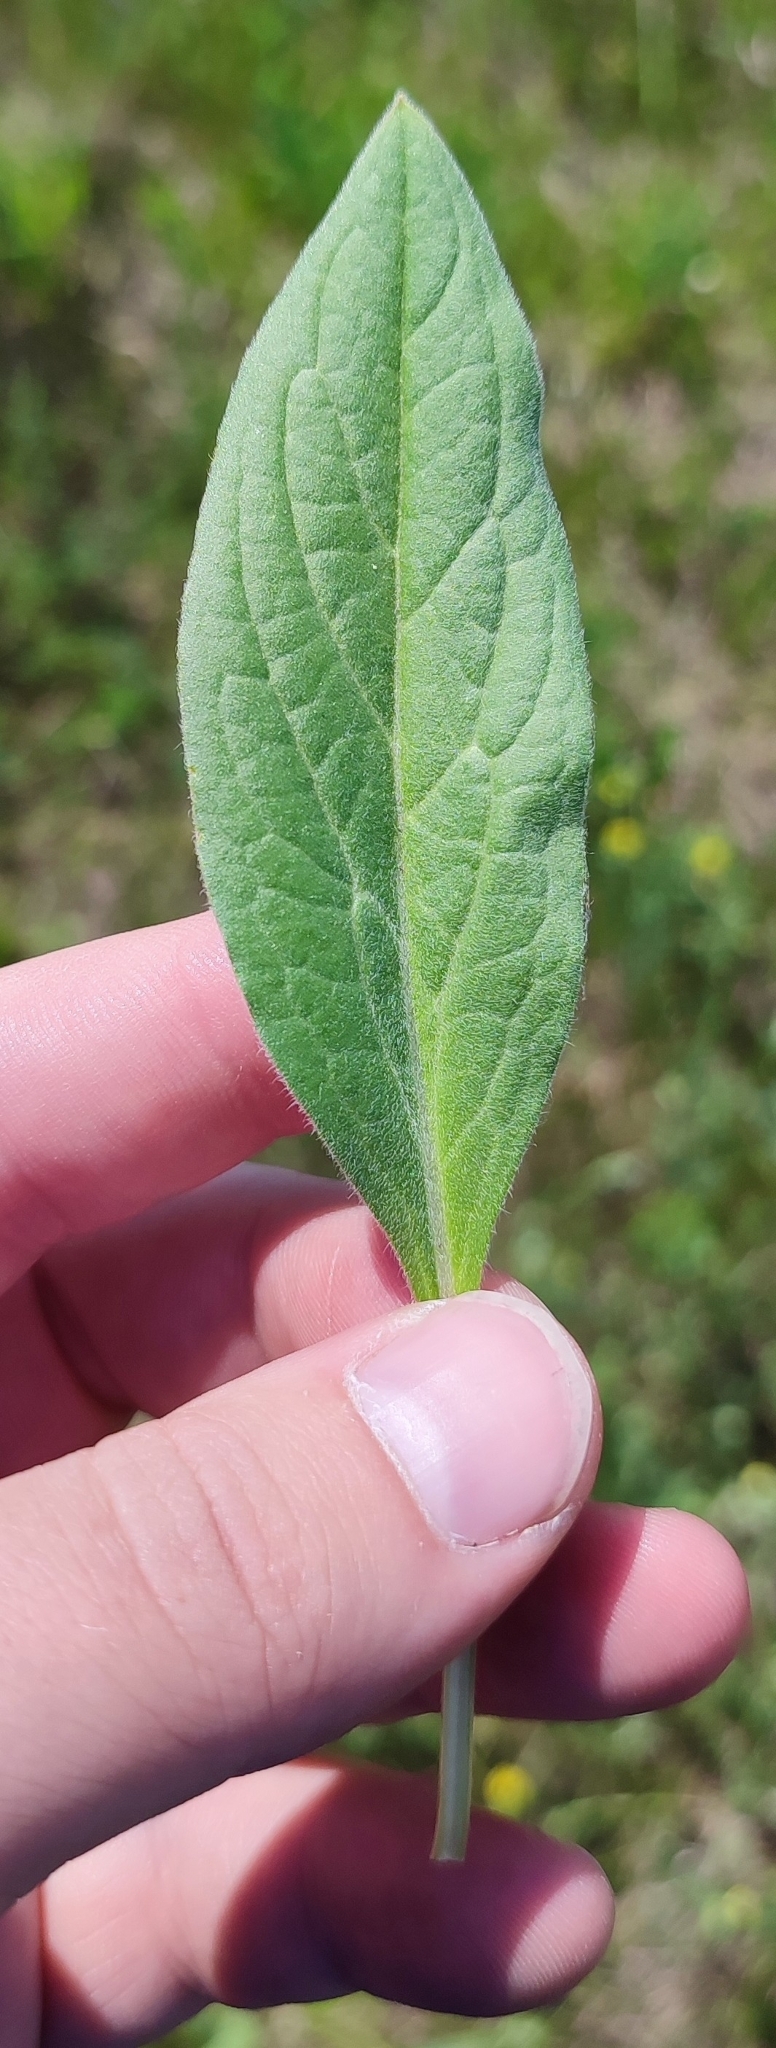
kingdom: Plantae
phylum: Tracheophyta
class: Magnoliopsida
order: Boraginales
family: Boraginaceae
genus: Cynoglossum
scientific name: Cynoglossum officinale
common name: Hound's-tongue
